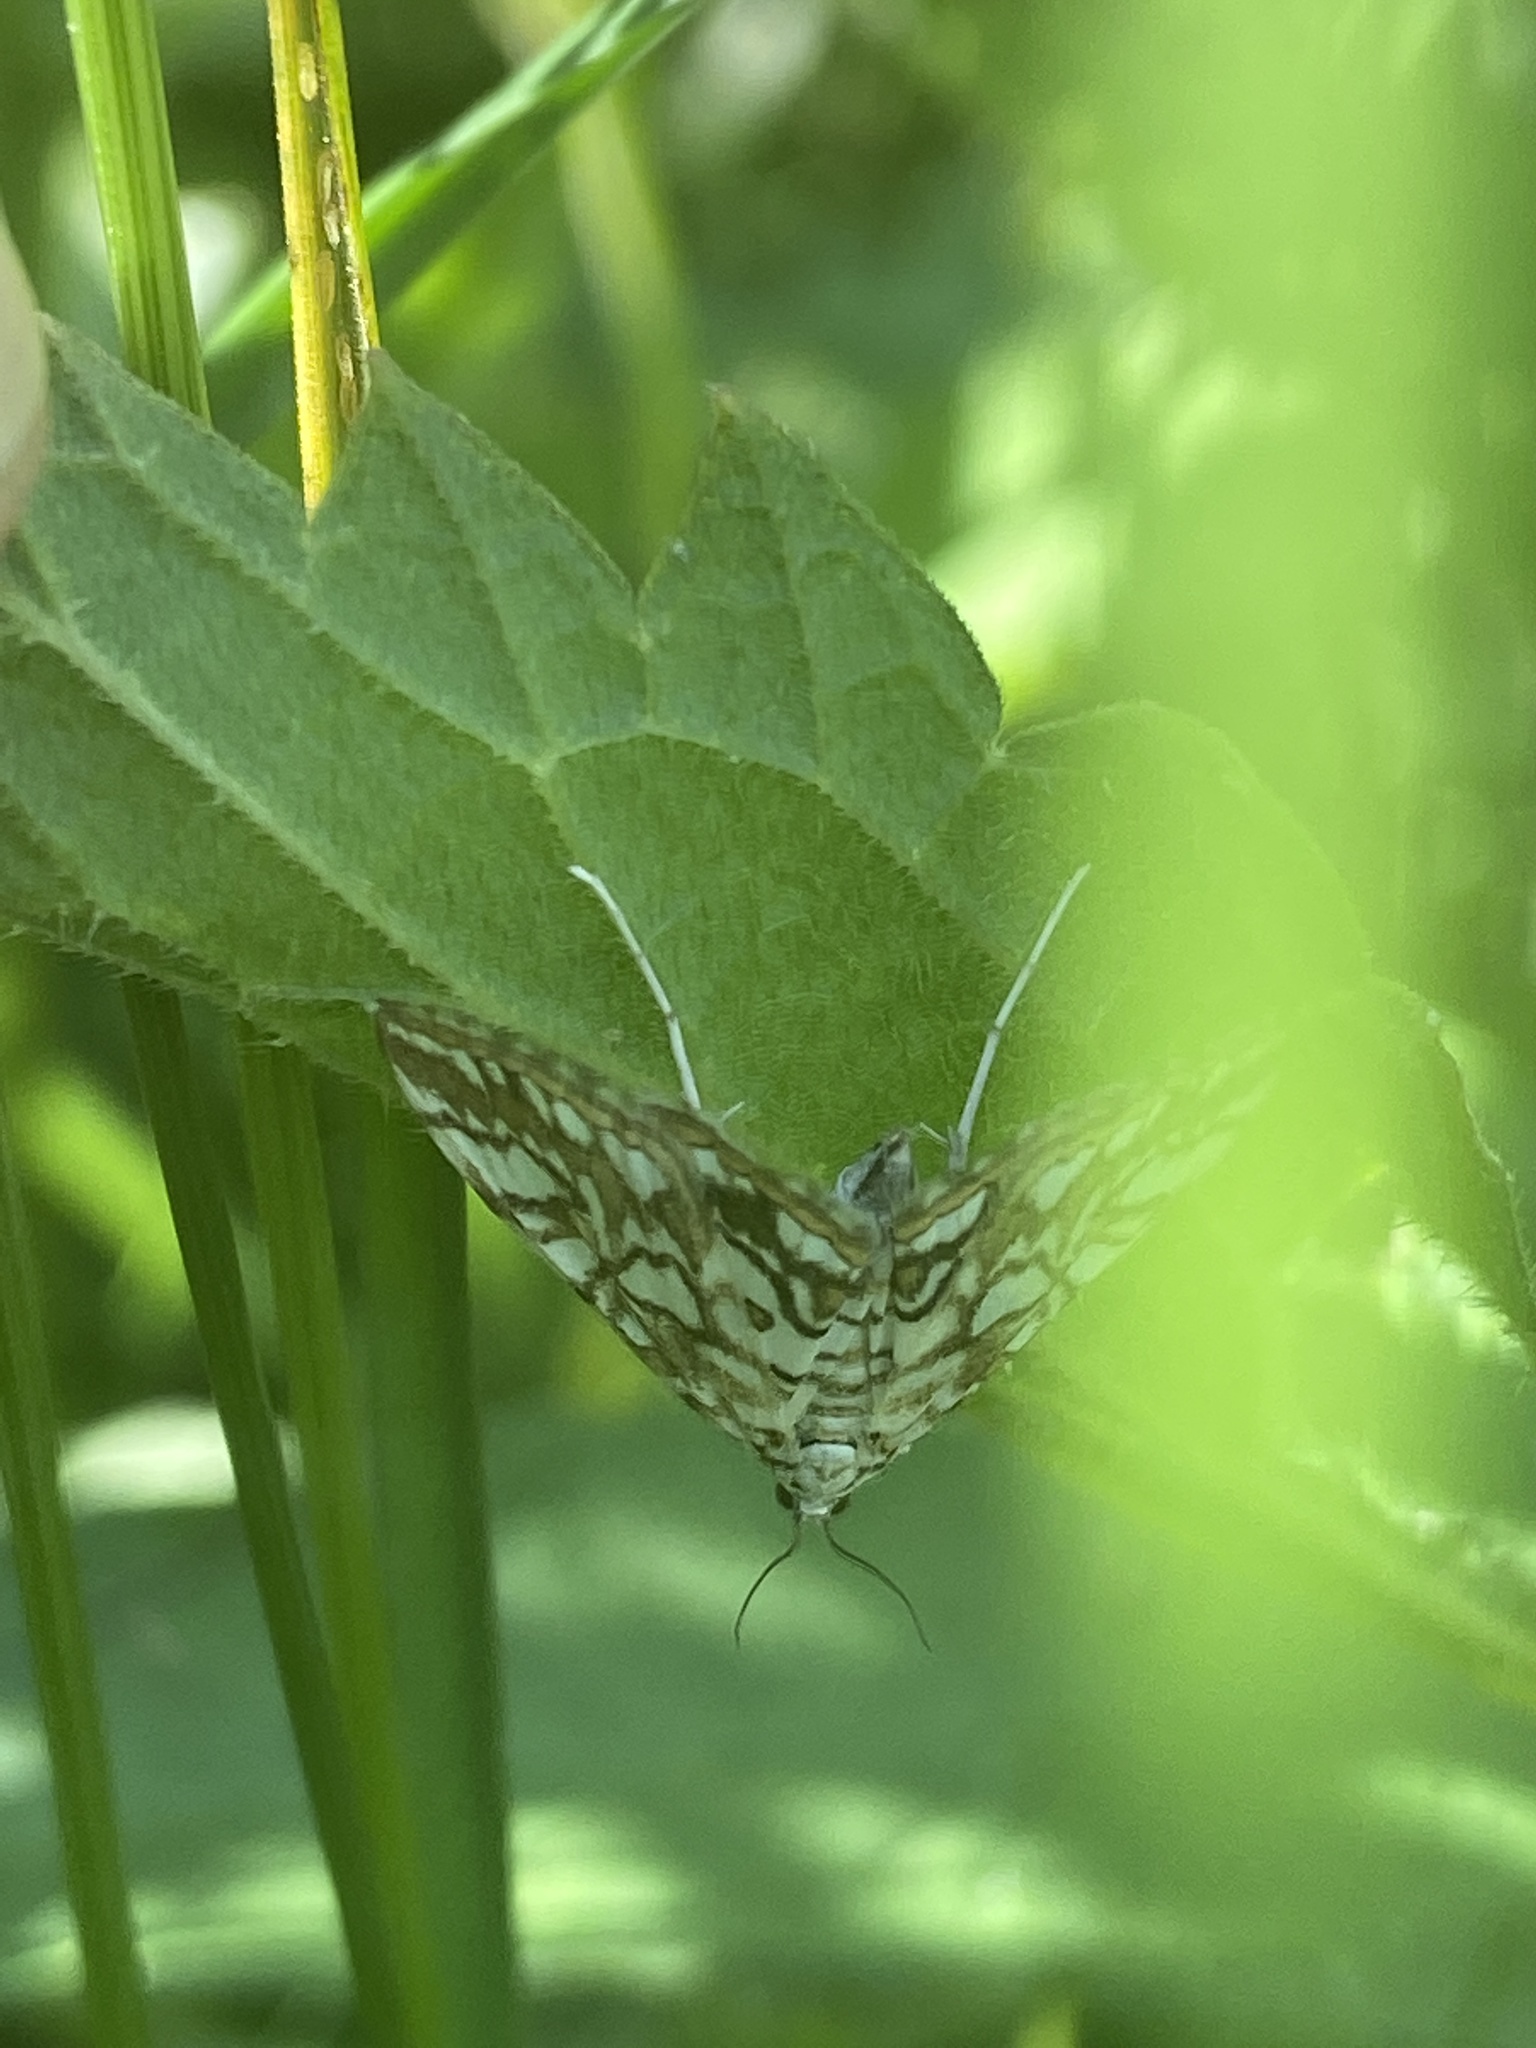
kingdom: Animalia
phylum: Arthropoda
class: Insecta
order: Lepidoptera
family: Crambidae
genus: Elophila
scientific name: Elophila nymphaeata
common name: Brown china-mark
